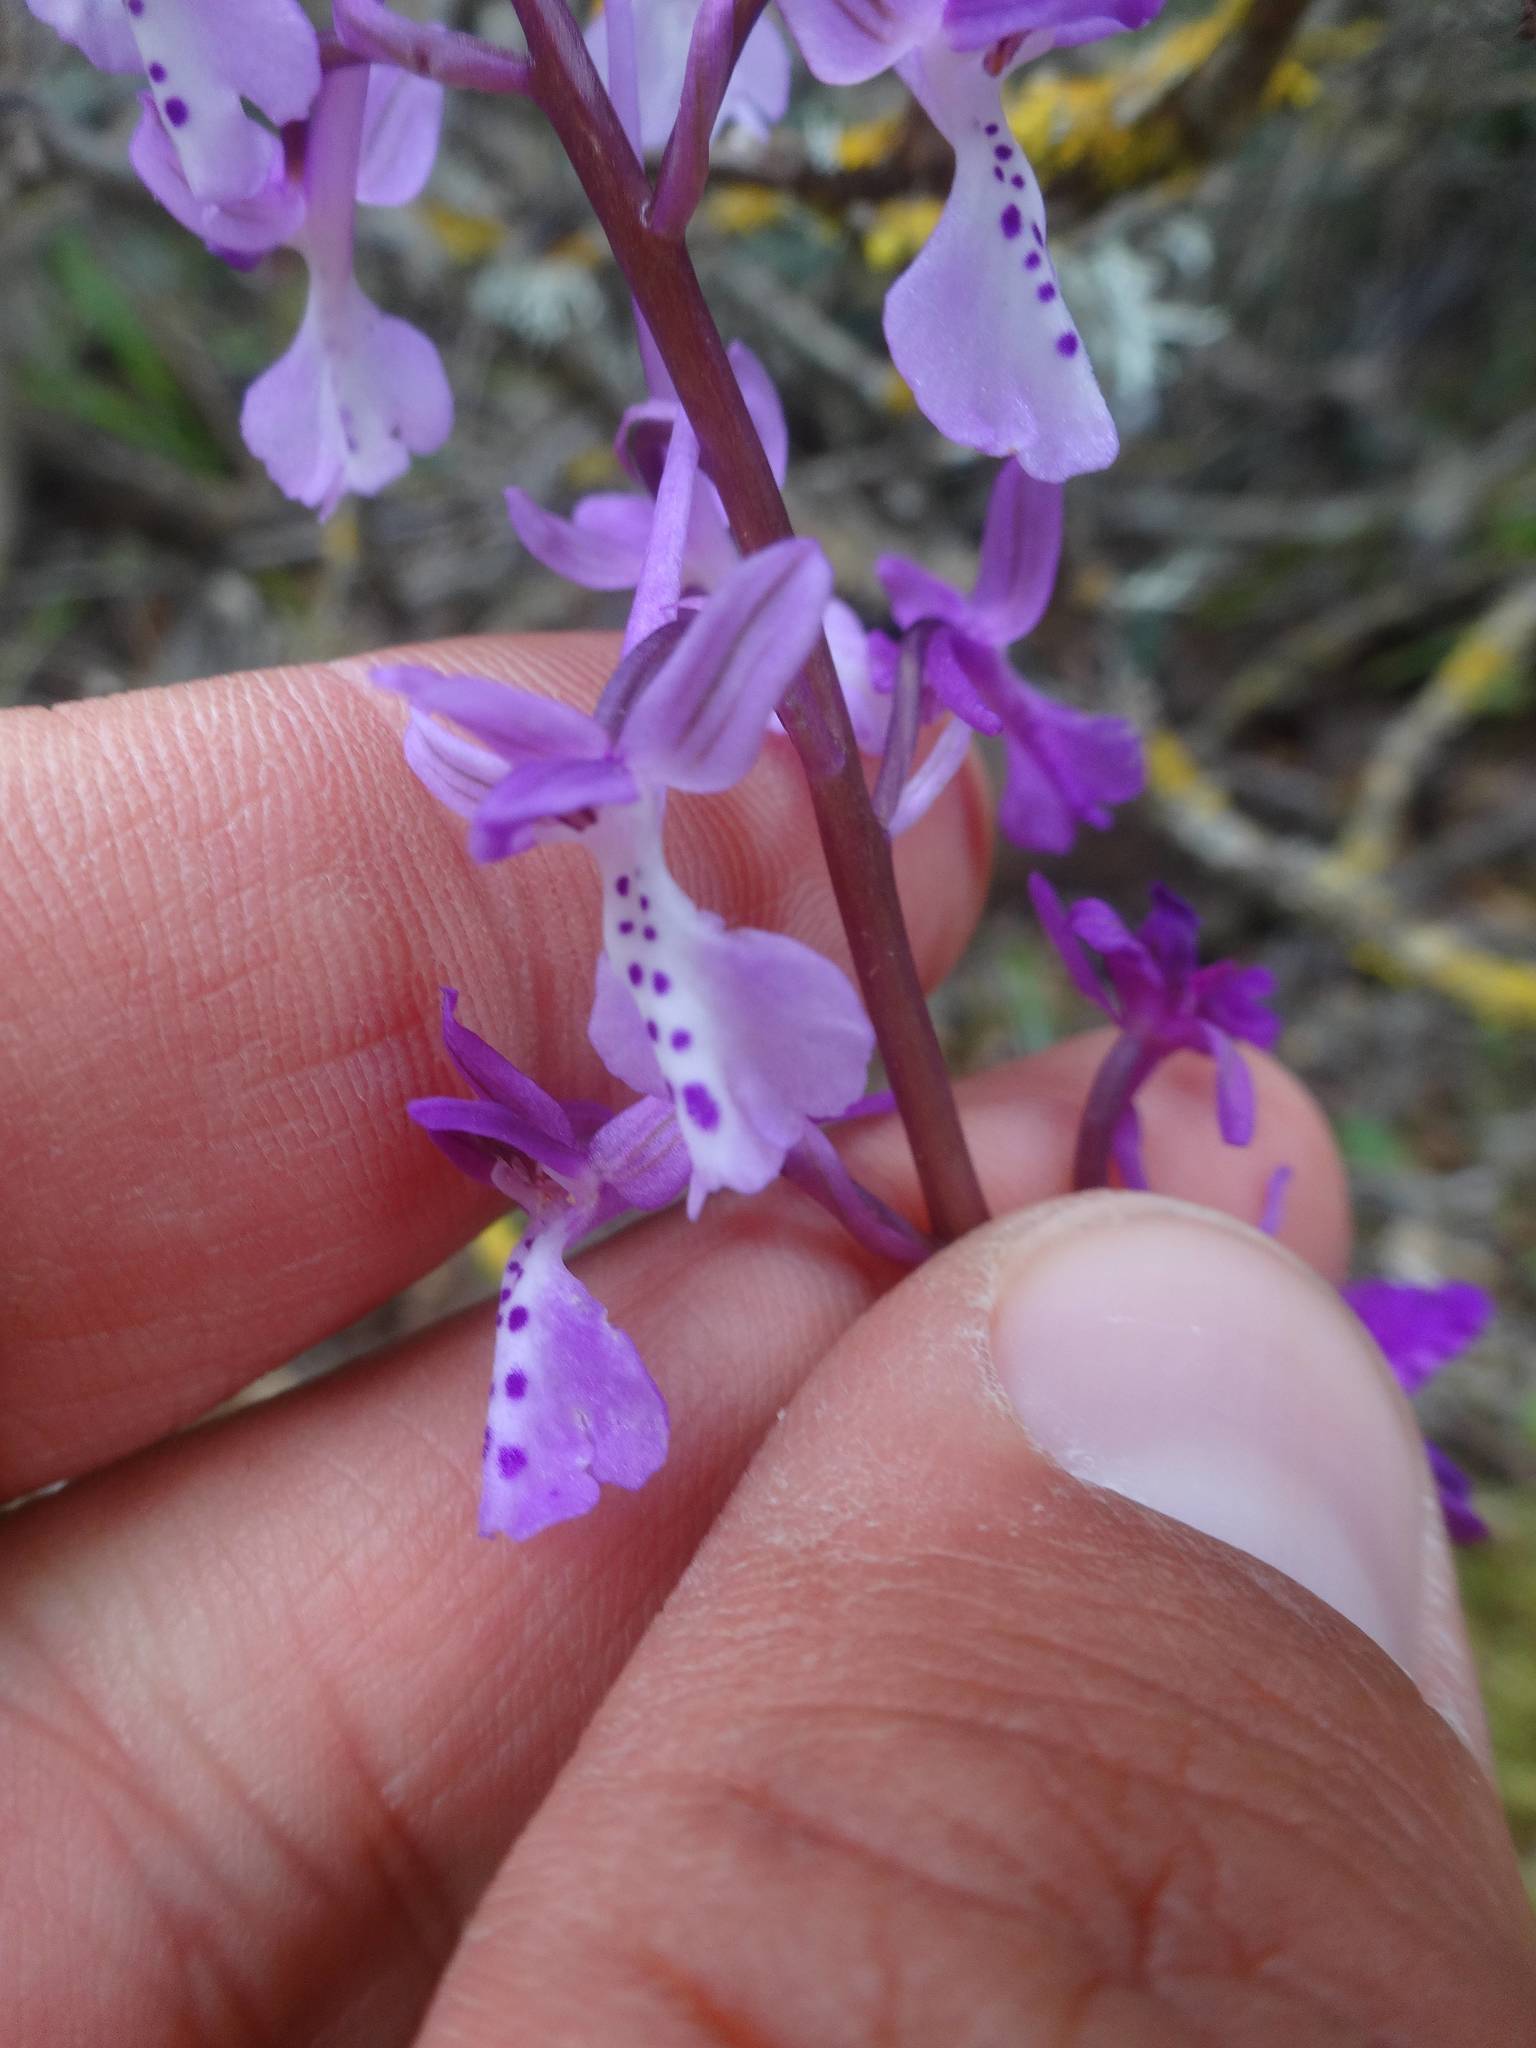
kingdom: Plantae
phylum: Tracheophyta
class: Liliopsida
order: Asparagales
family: Orchidaceae
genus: Orchis
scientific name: Orchis anatolica
